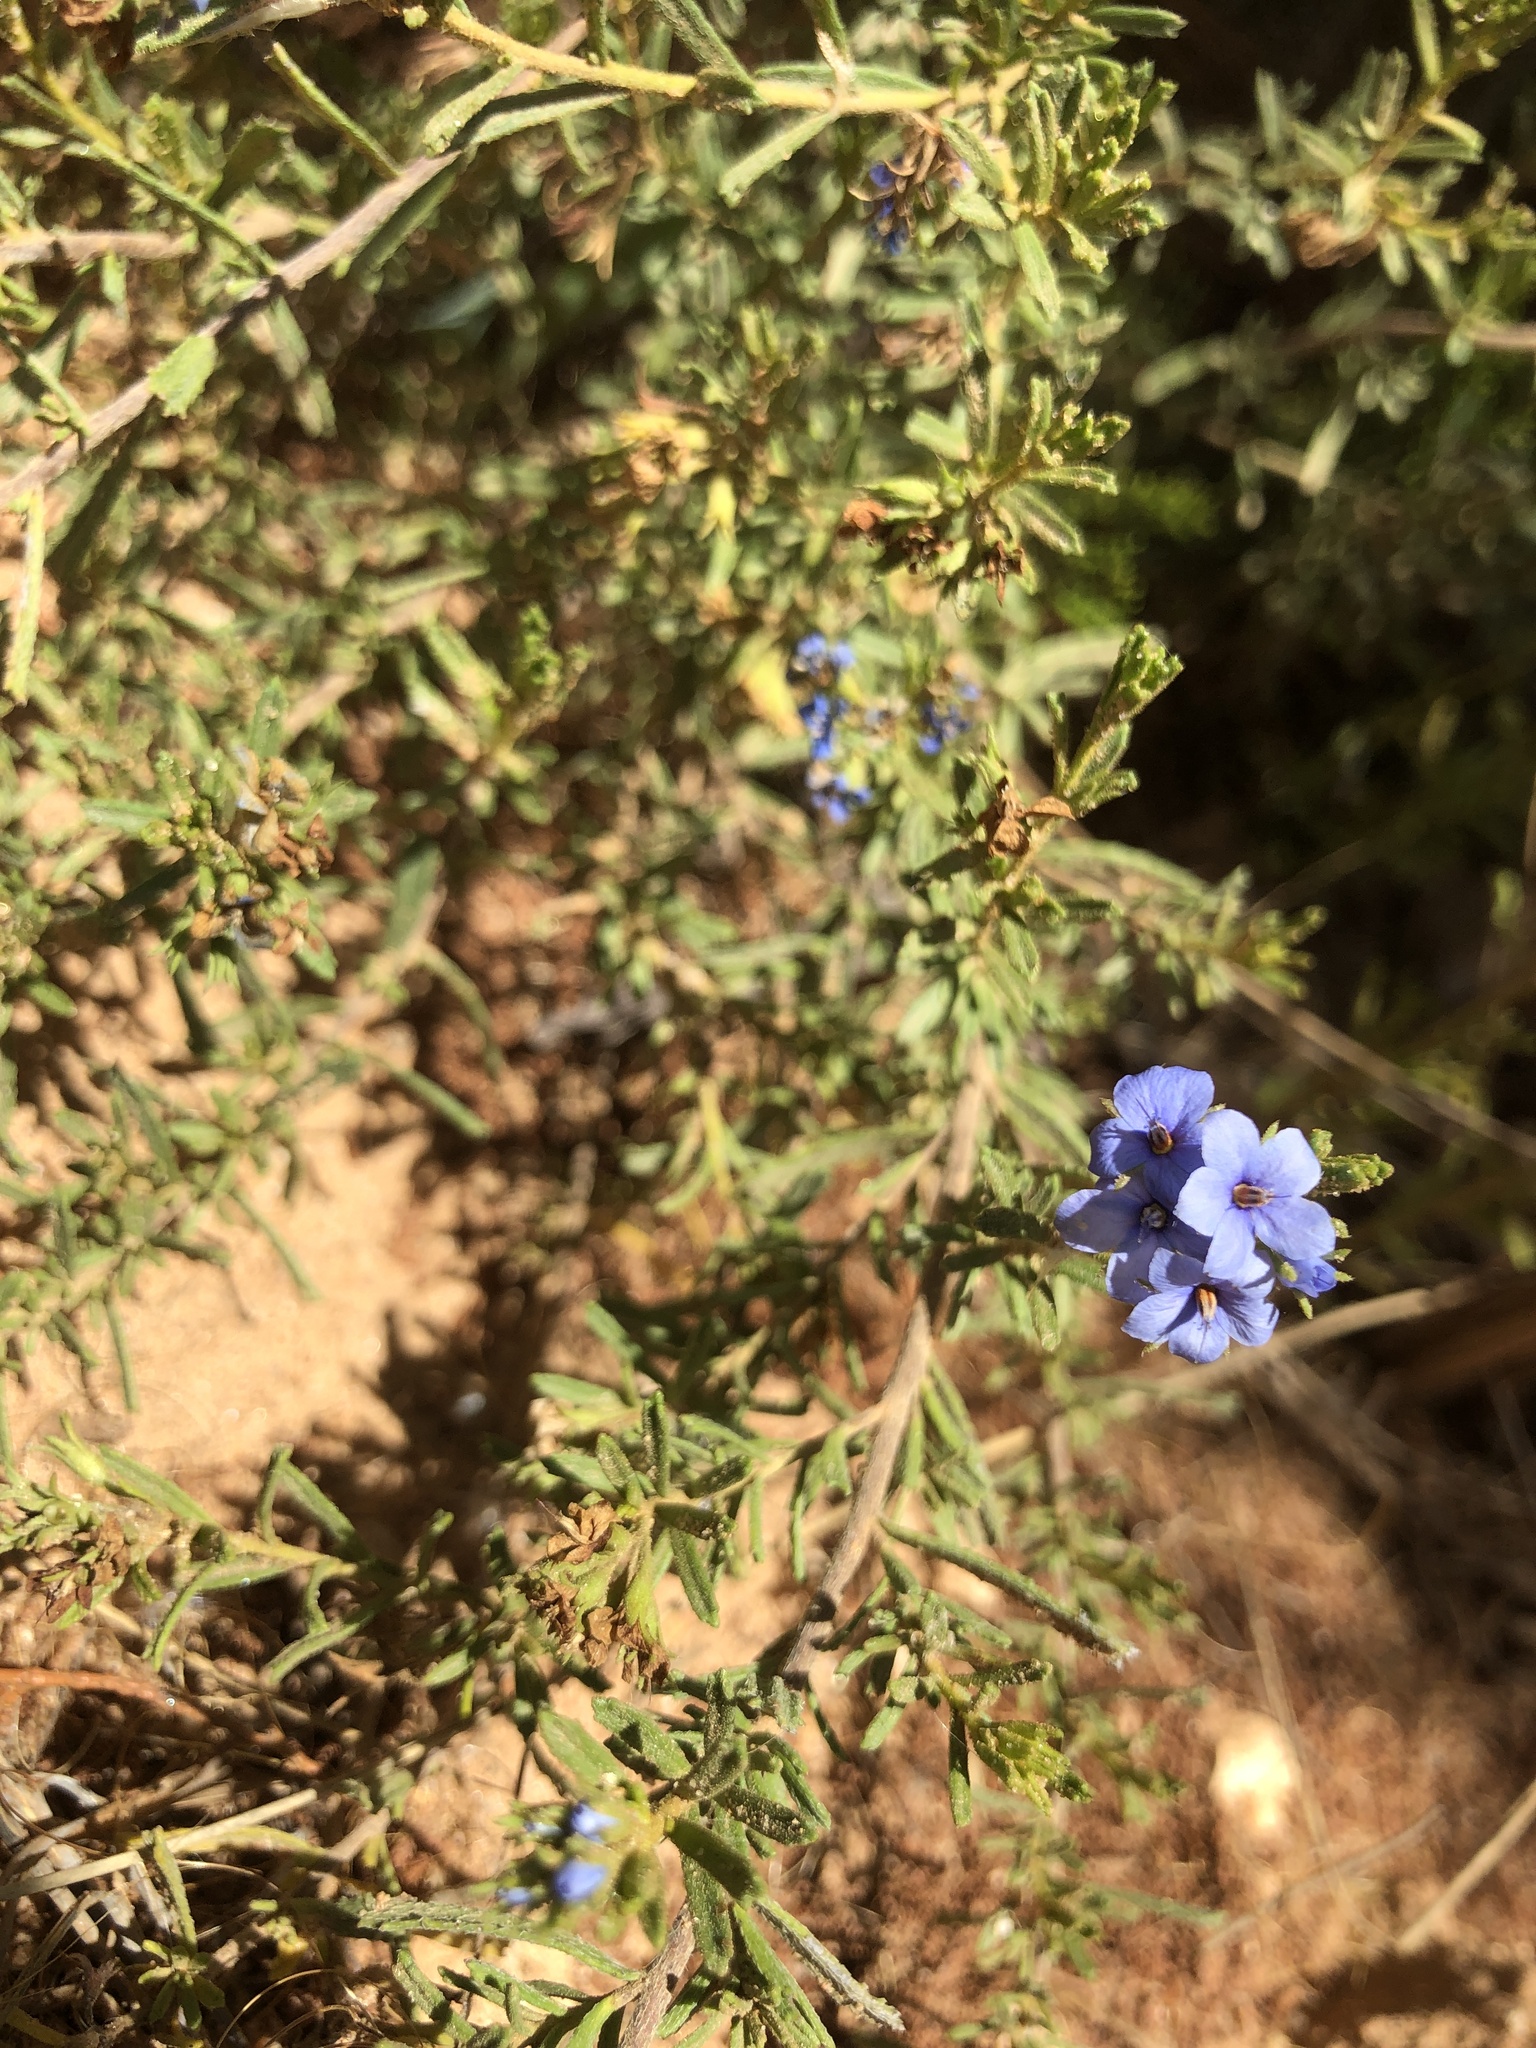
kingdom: Plantae
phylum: Tracheophyta
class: Magnoliopsida
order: Boraginales
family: Ehretiaceae
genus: Halgania
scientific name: Halgania cyanea
